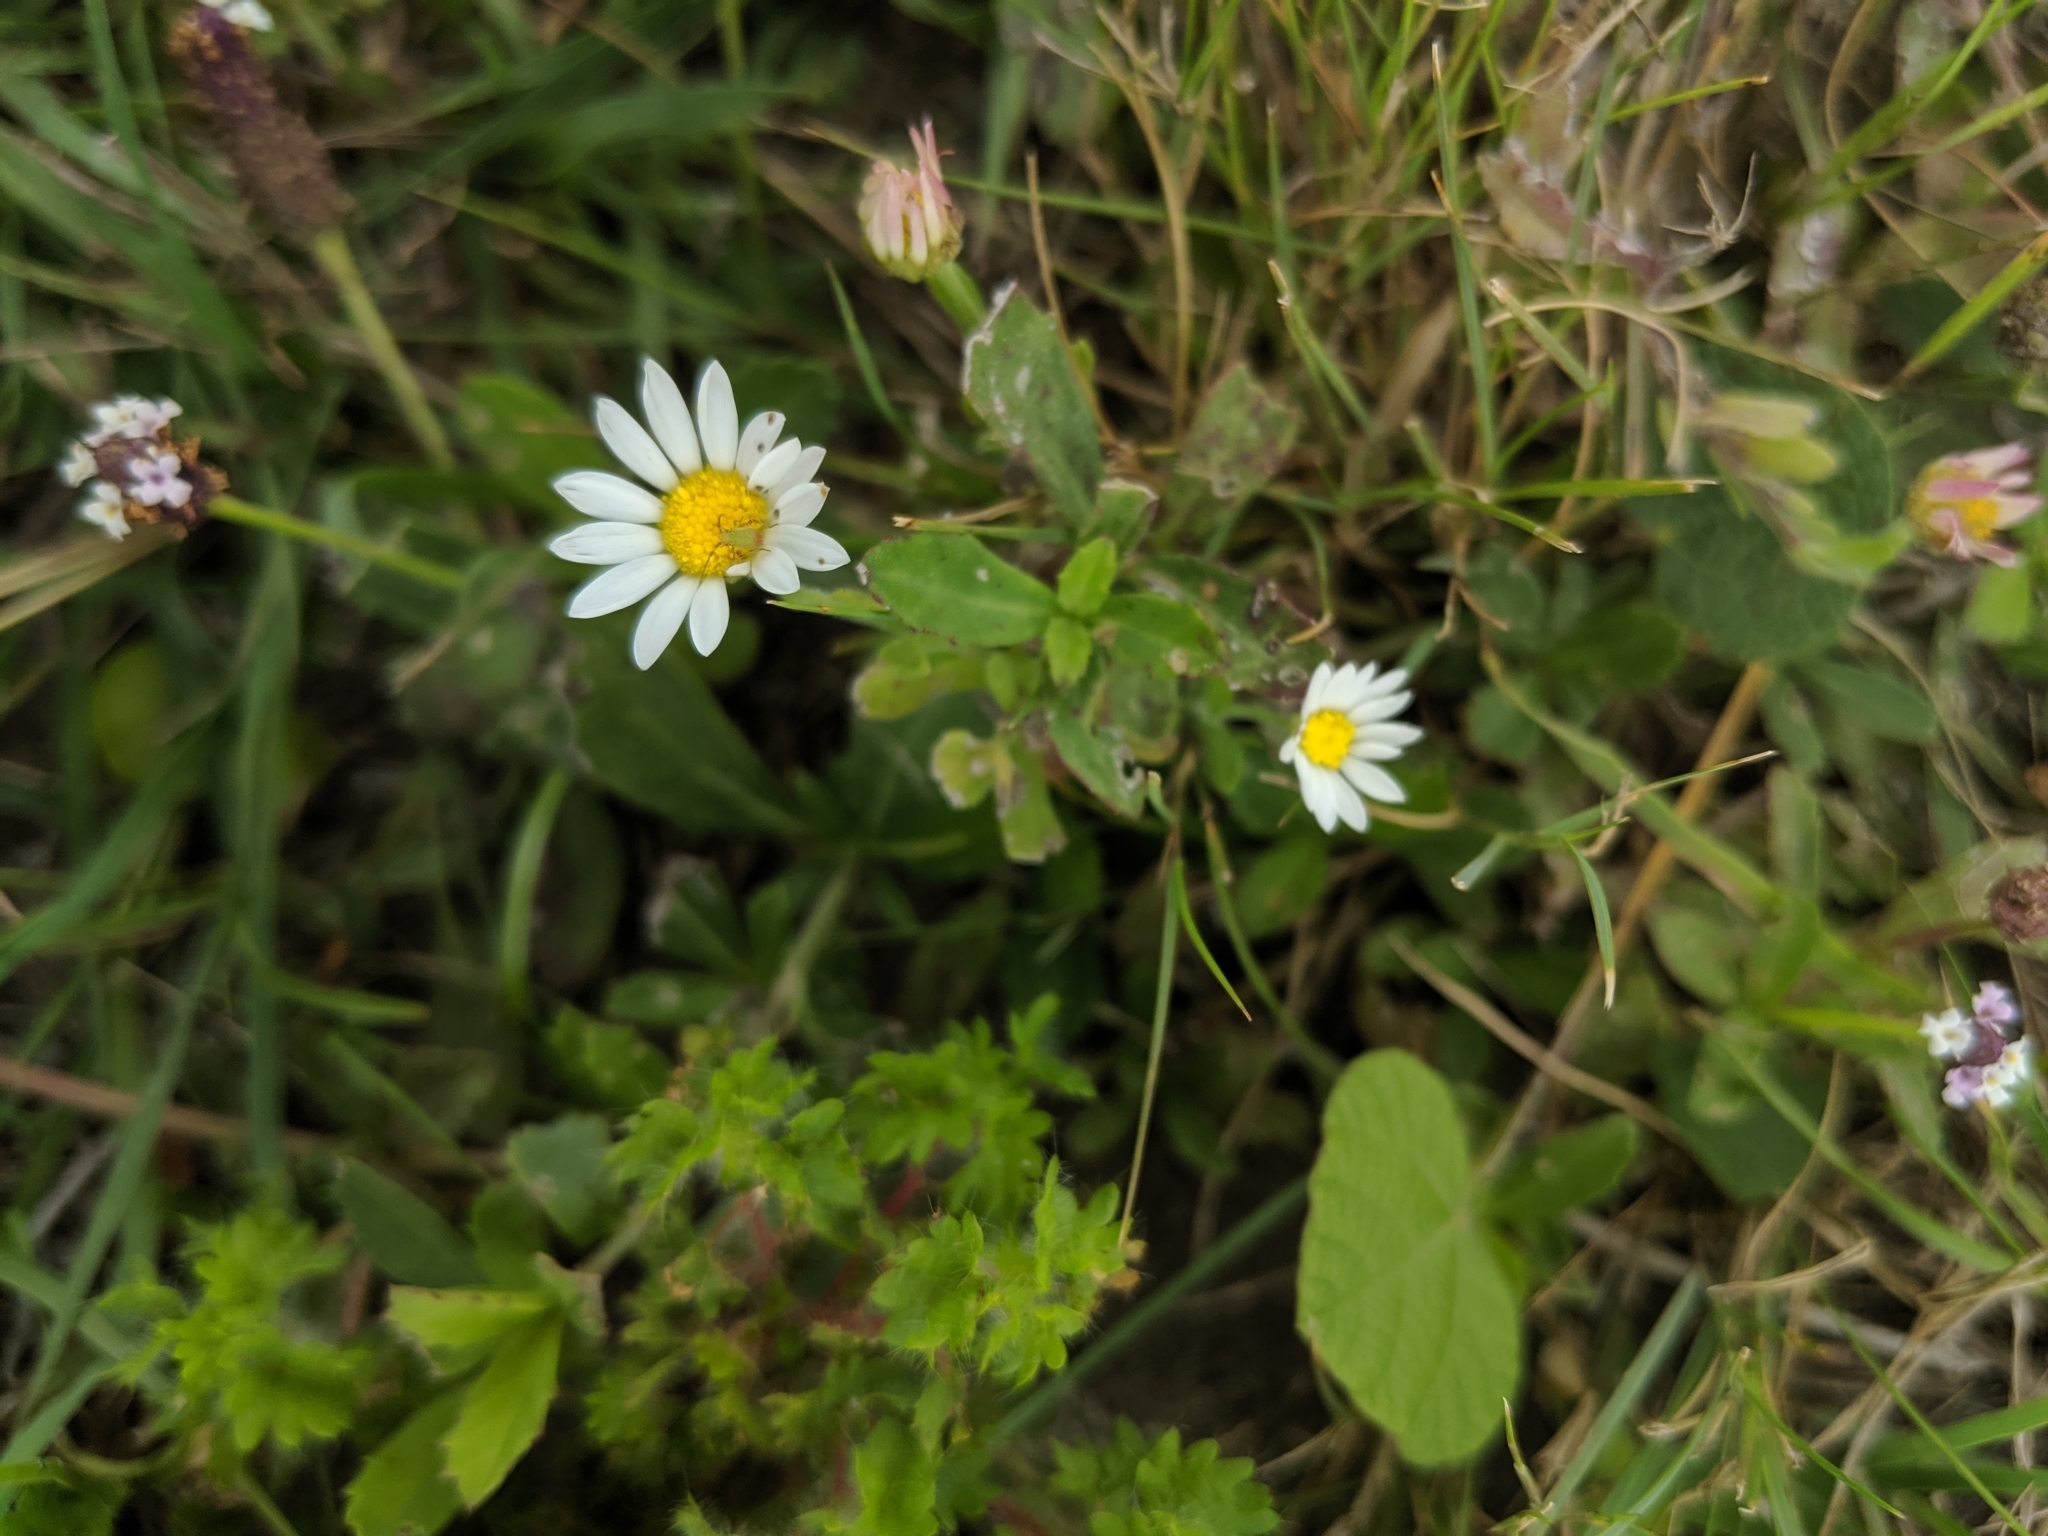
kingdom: Plantae
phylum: Tracheophyta
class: Magnoliopsida
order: Asterales
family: Asteraceae
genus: Aphanostephus
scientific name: Aphanostephus skirrhobasis
